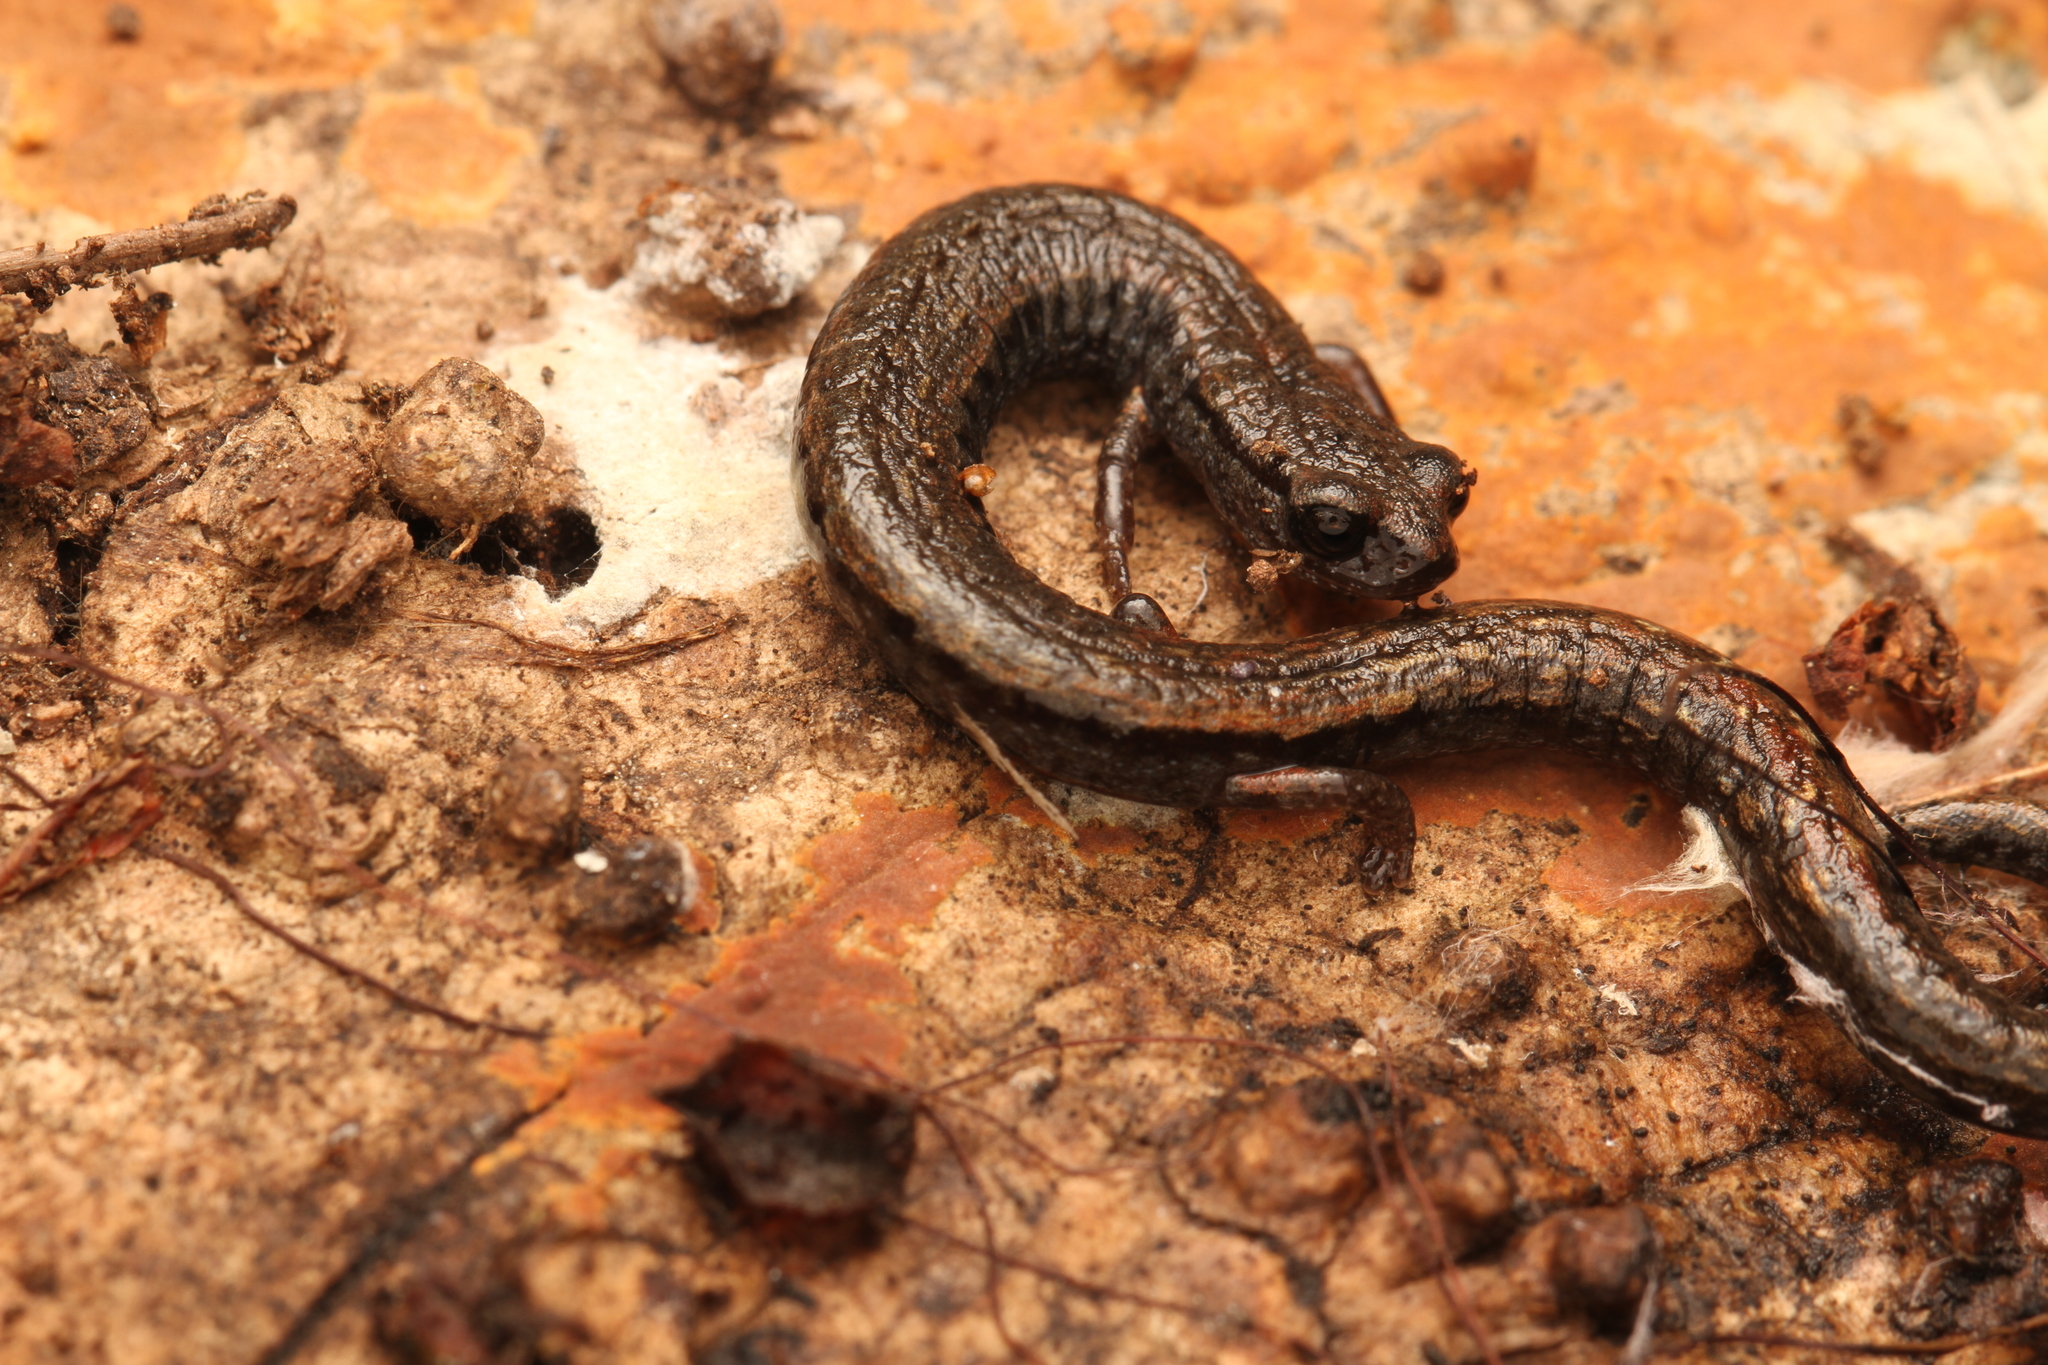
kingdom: Animalia
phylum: Chordata
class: Amphibia
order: Caudata
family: Plethodontidae
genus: Batrachoseps
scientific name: Batrachoseps attenuatus
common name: California slender salamander
